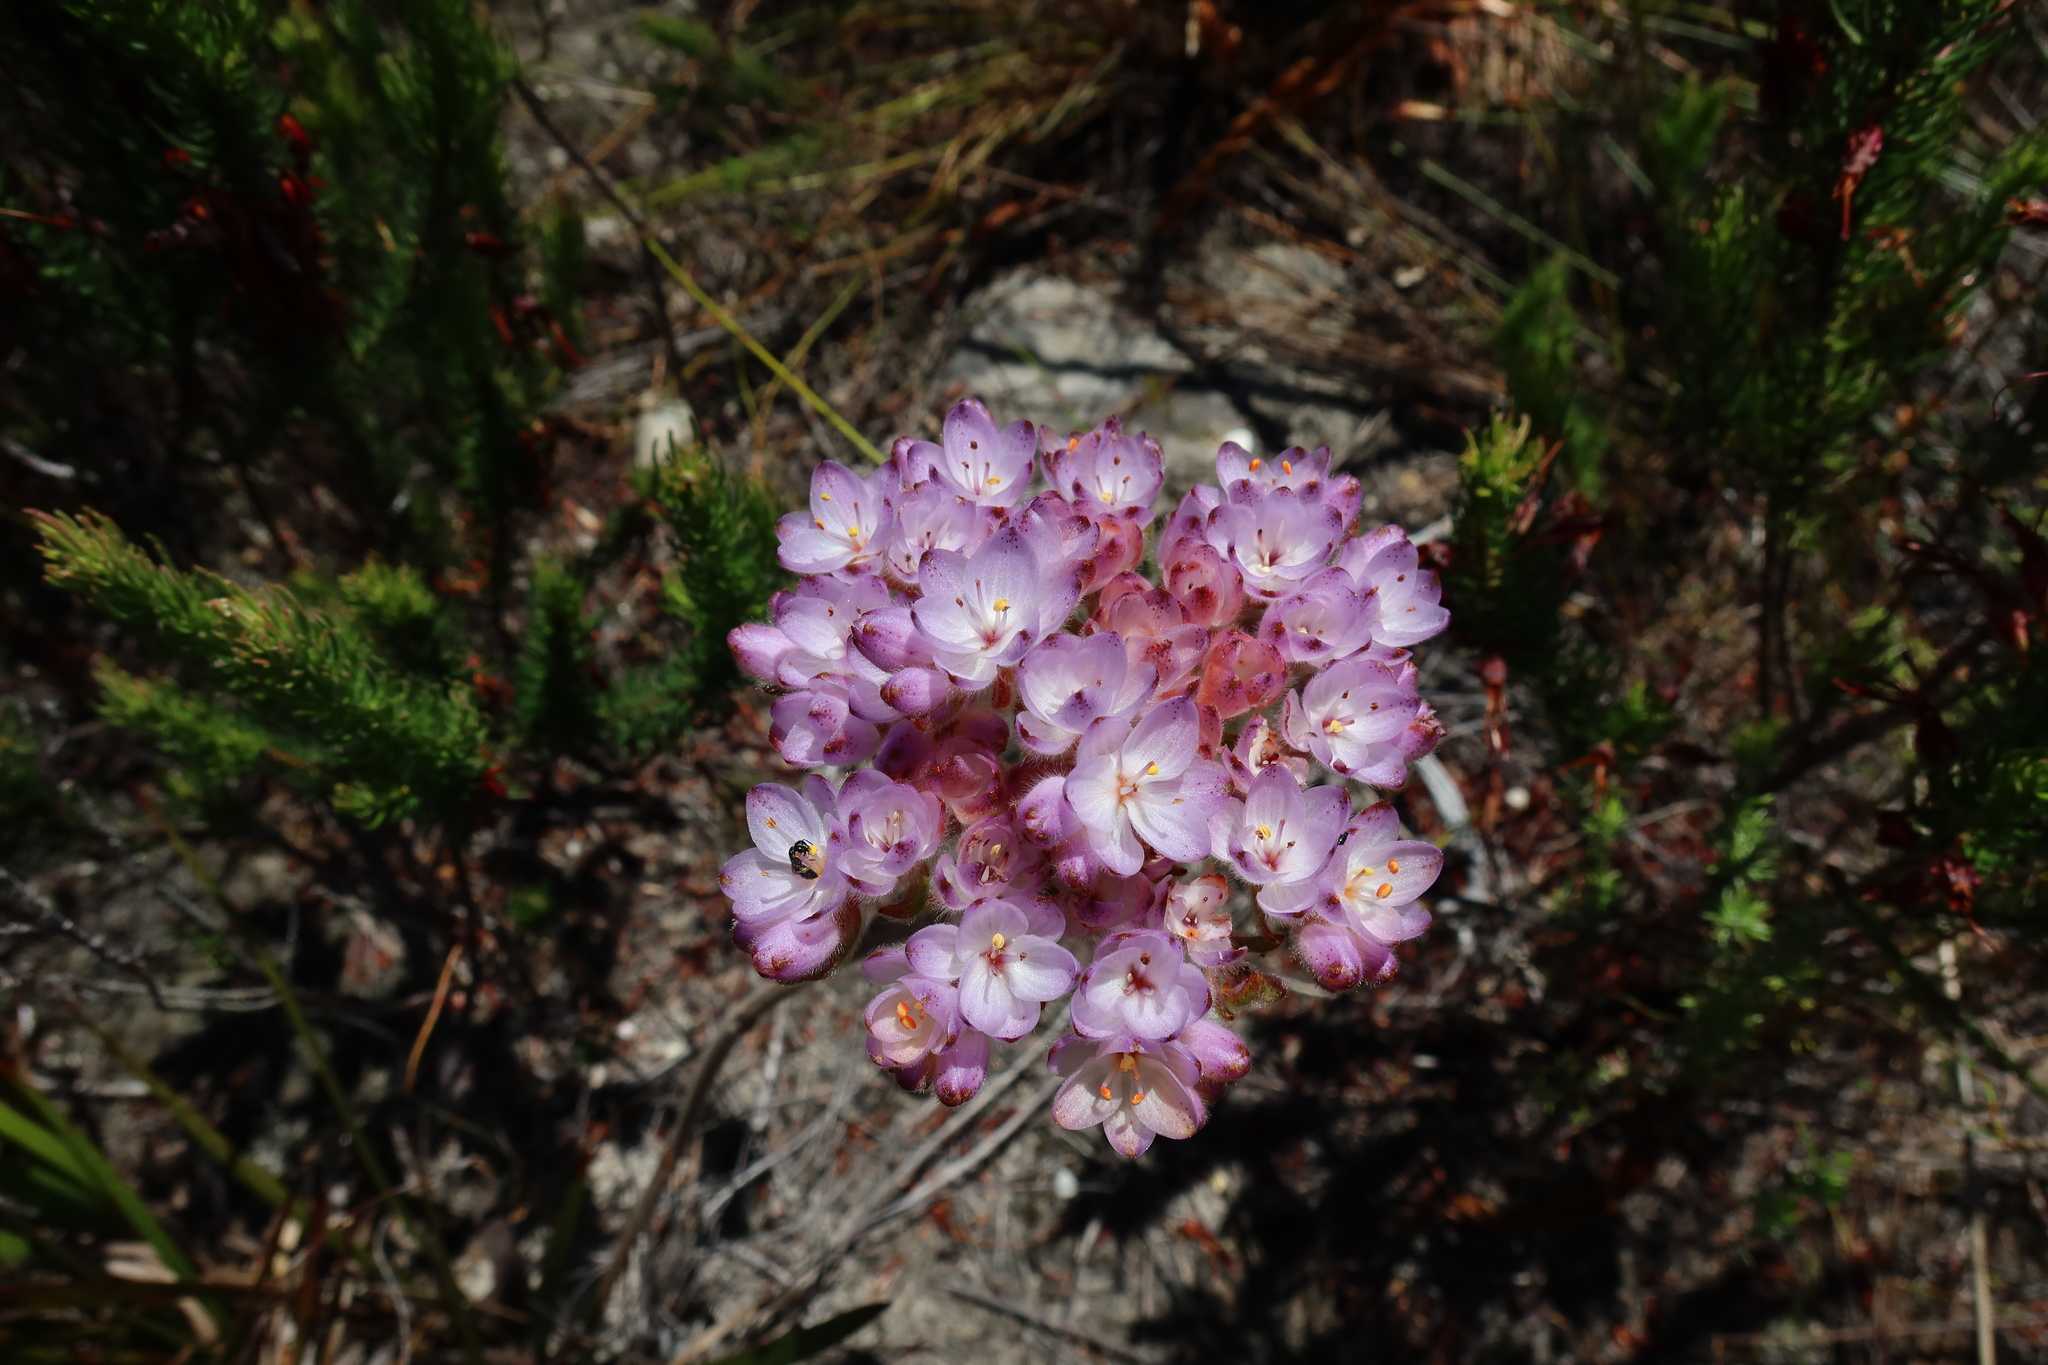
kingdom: Plantae
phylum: Tracheophyta
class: Liliopsida
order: Commelinales
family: Haemodoraceae
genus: Dilatris
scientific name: Dilatris pillansii
